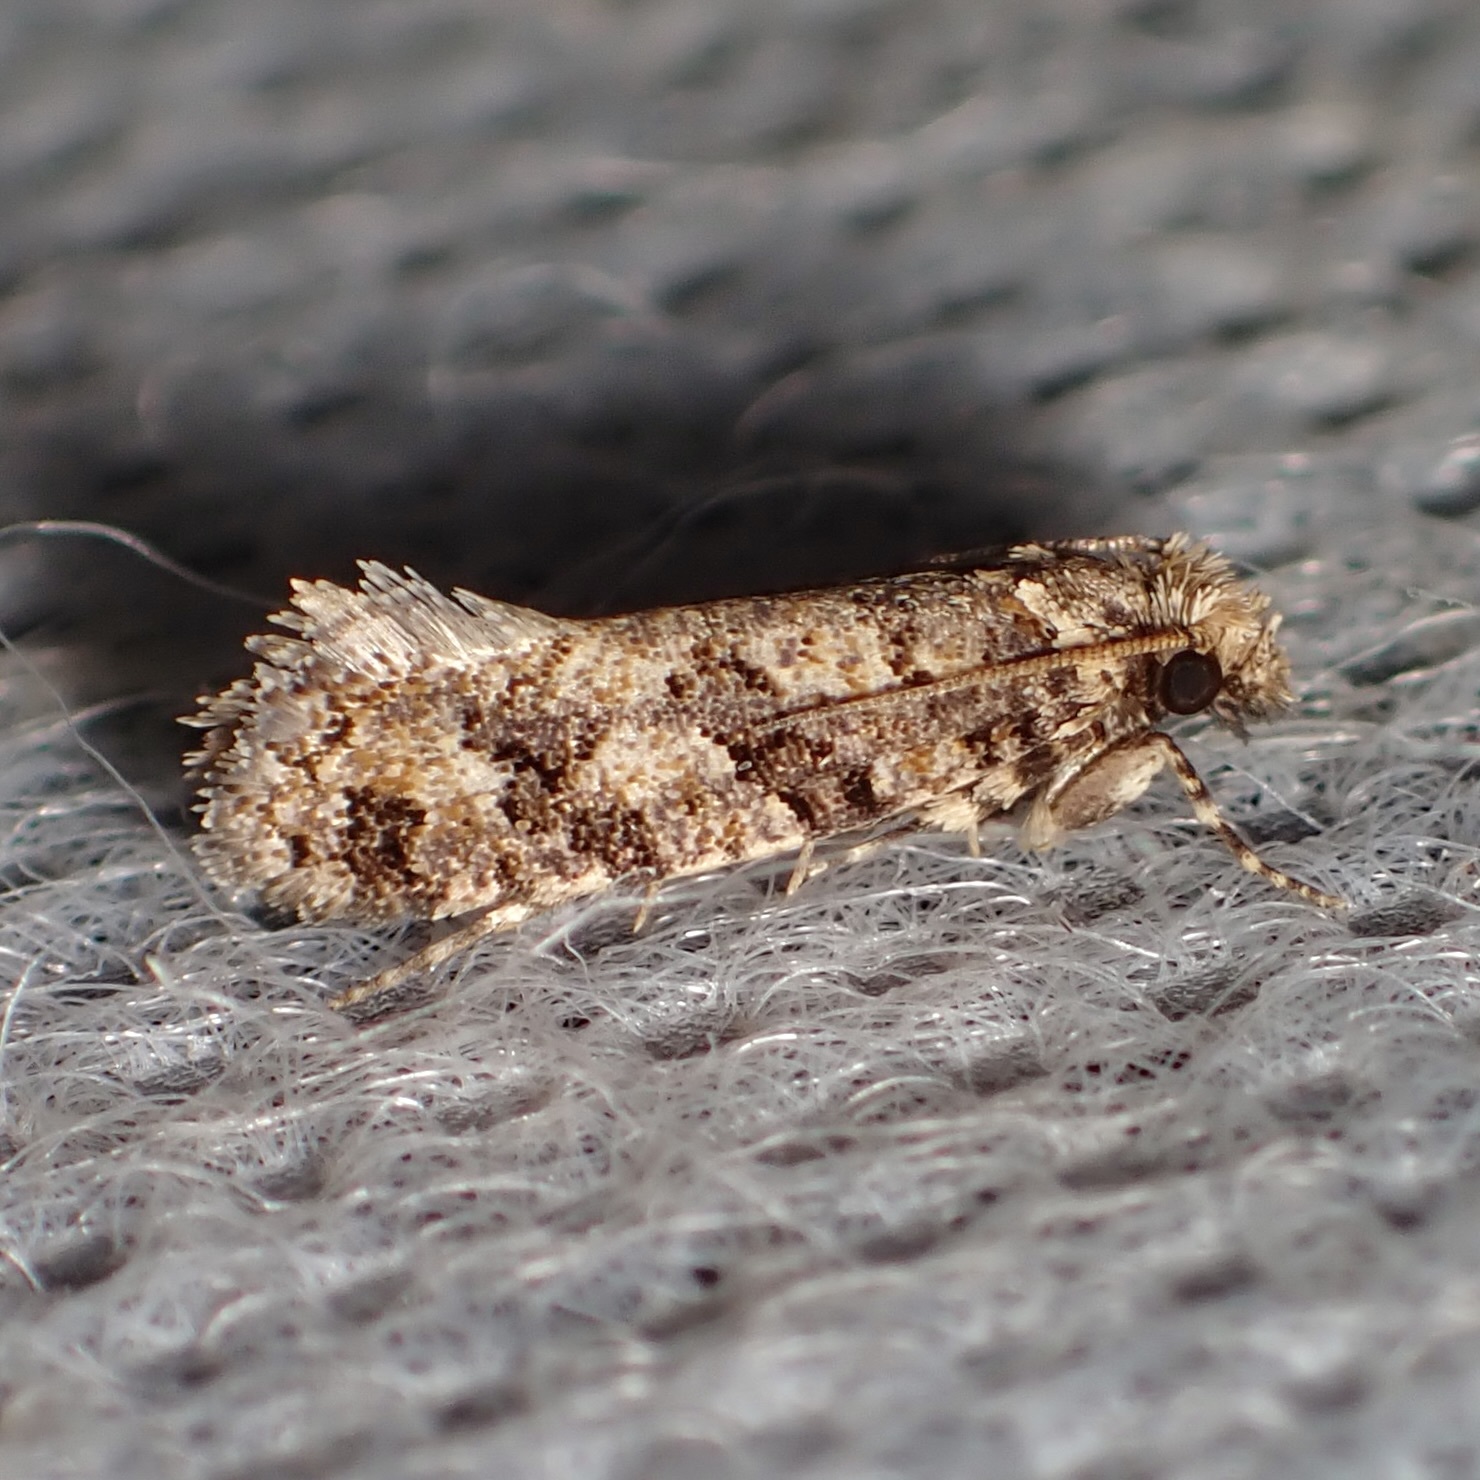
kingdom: Animalia
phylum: Arthropoda
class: Insecta
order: Lepidoptera
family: Tineidae
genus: Amydria
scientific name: Amydria obliquella
